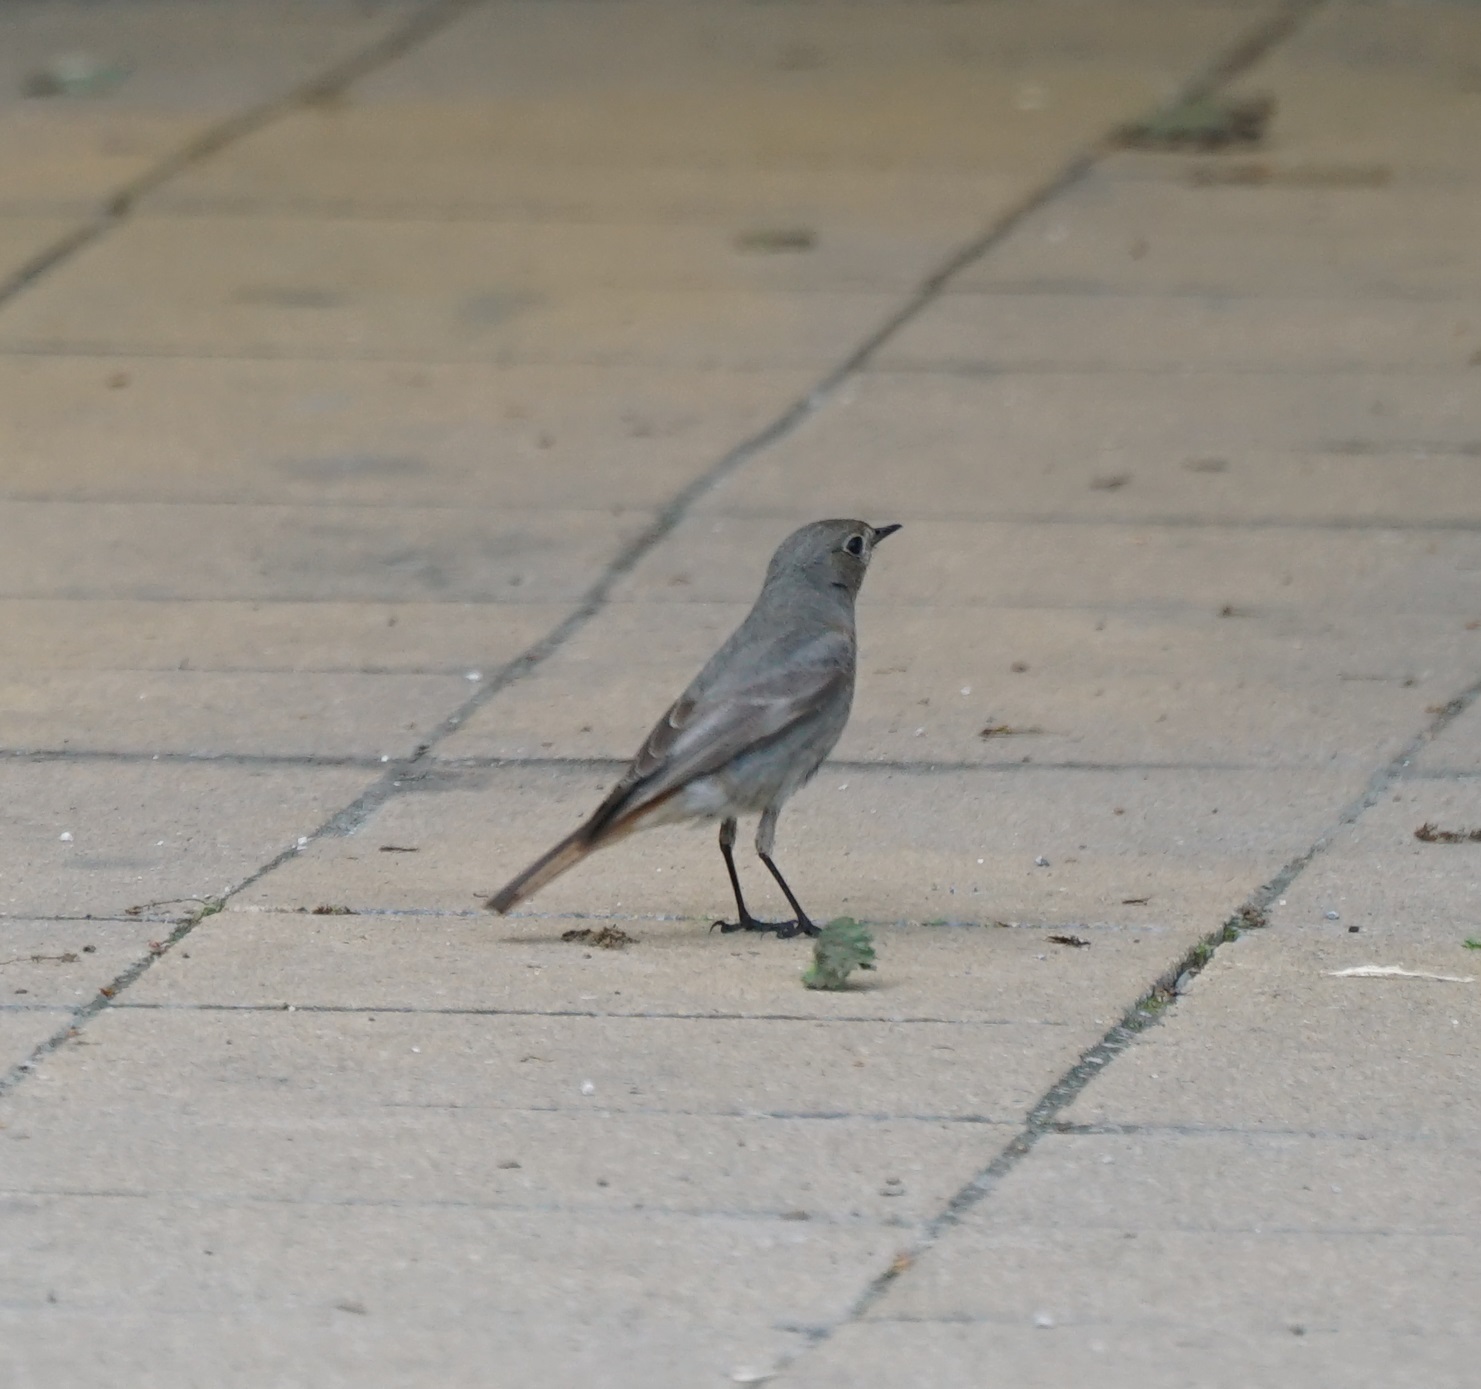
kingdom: Animalia
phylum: Chordata
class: Aves
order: Passeriformes
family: Muscicapidae
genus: Phoenicurus
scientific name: Phoenicurus ochruros
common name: Black redstart
